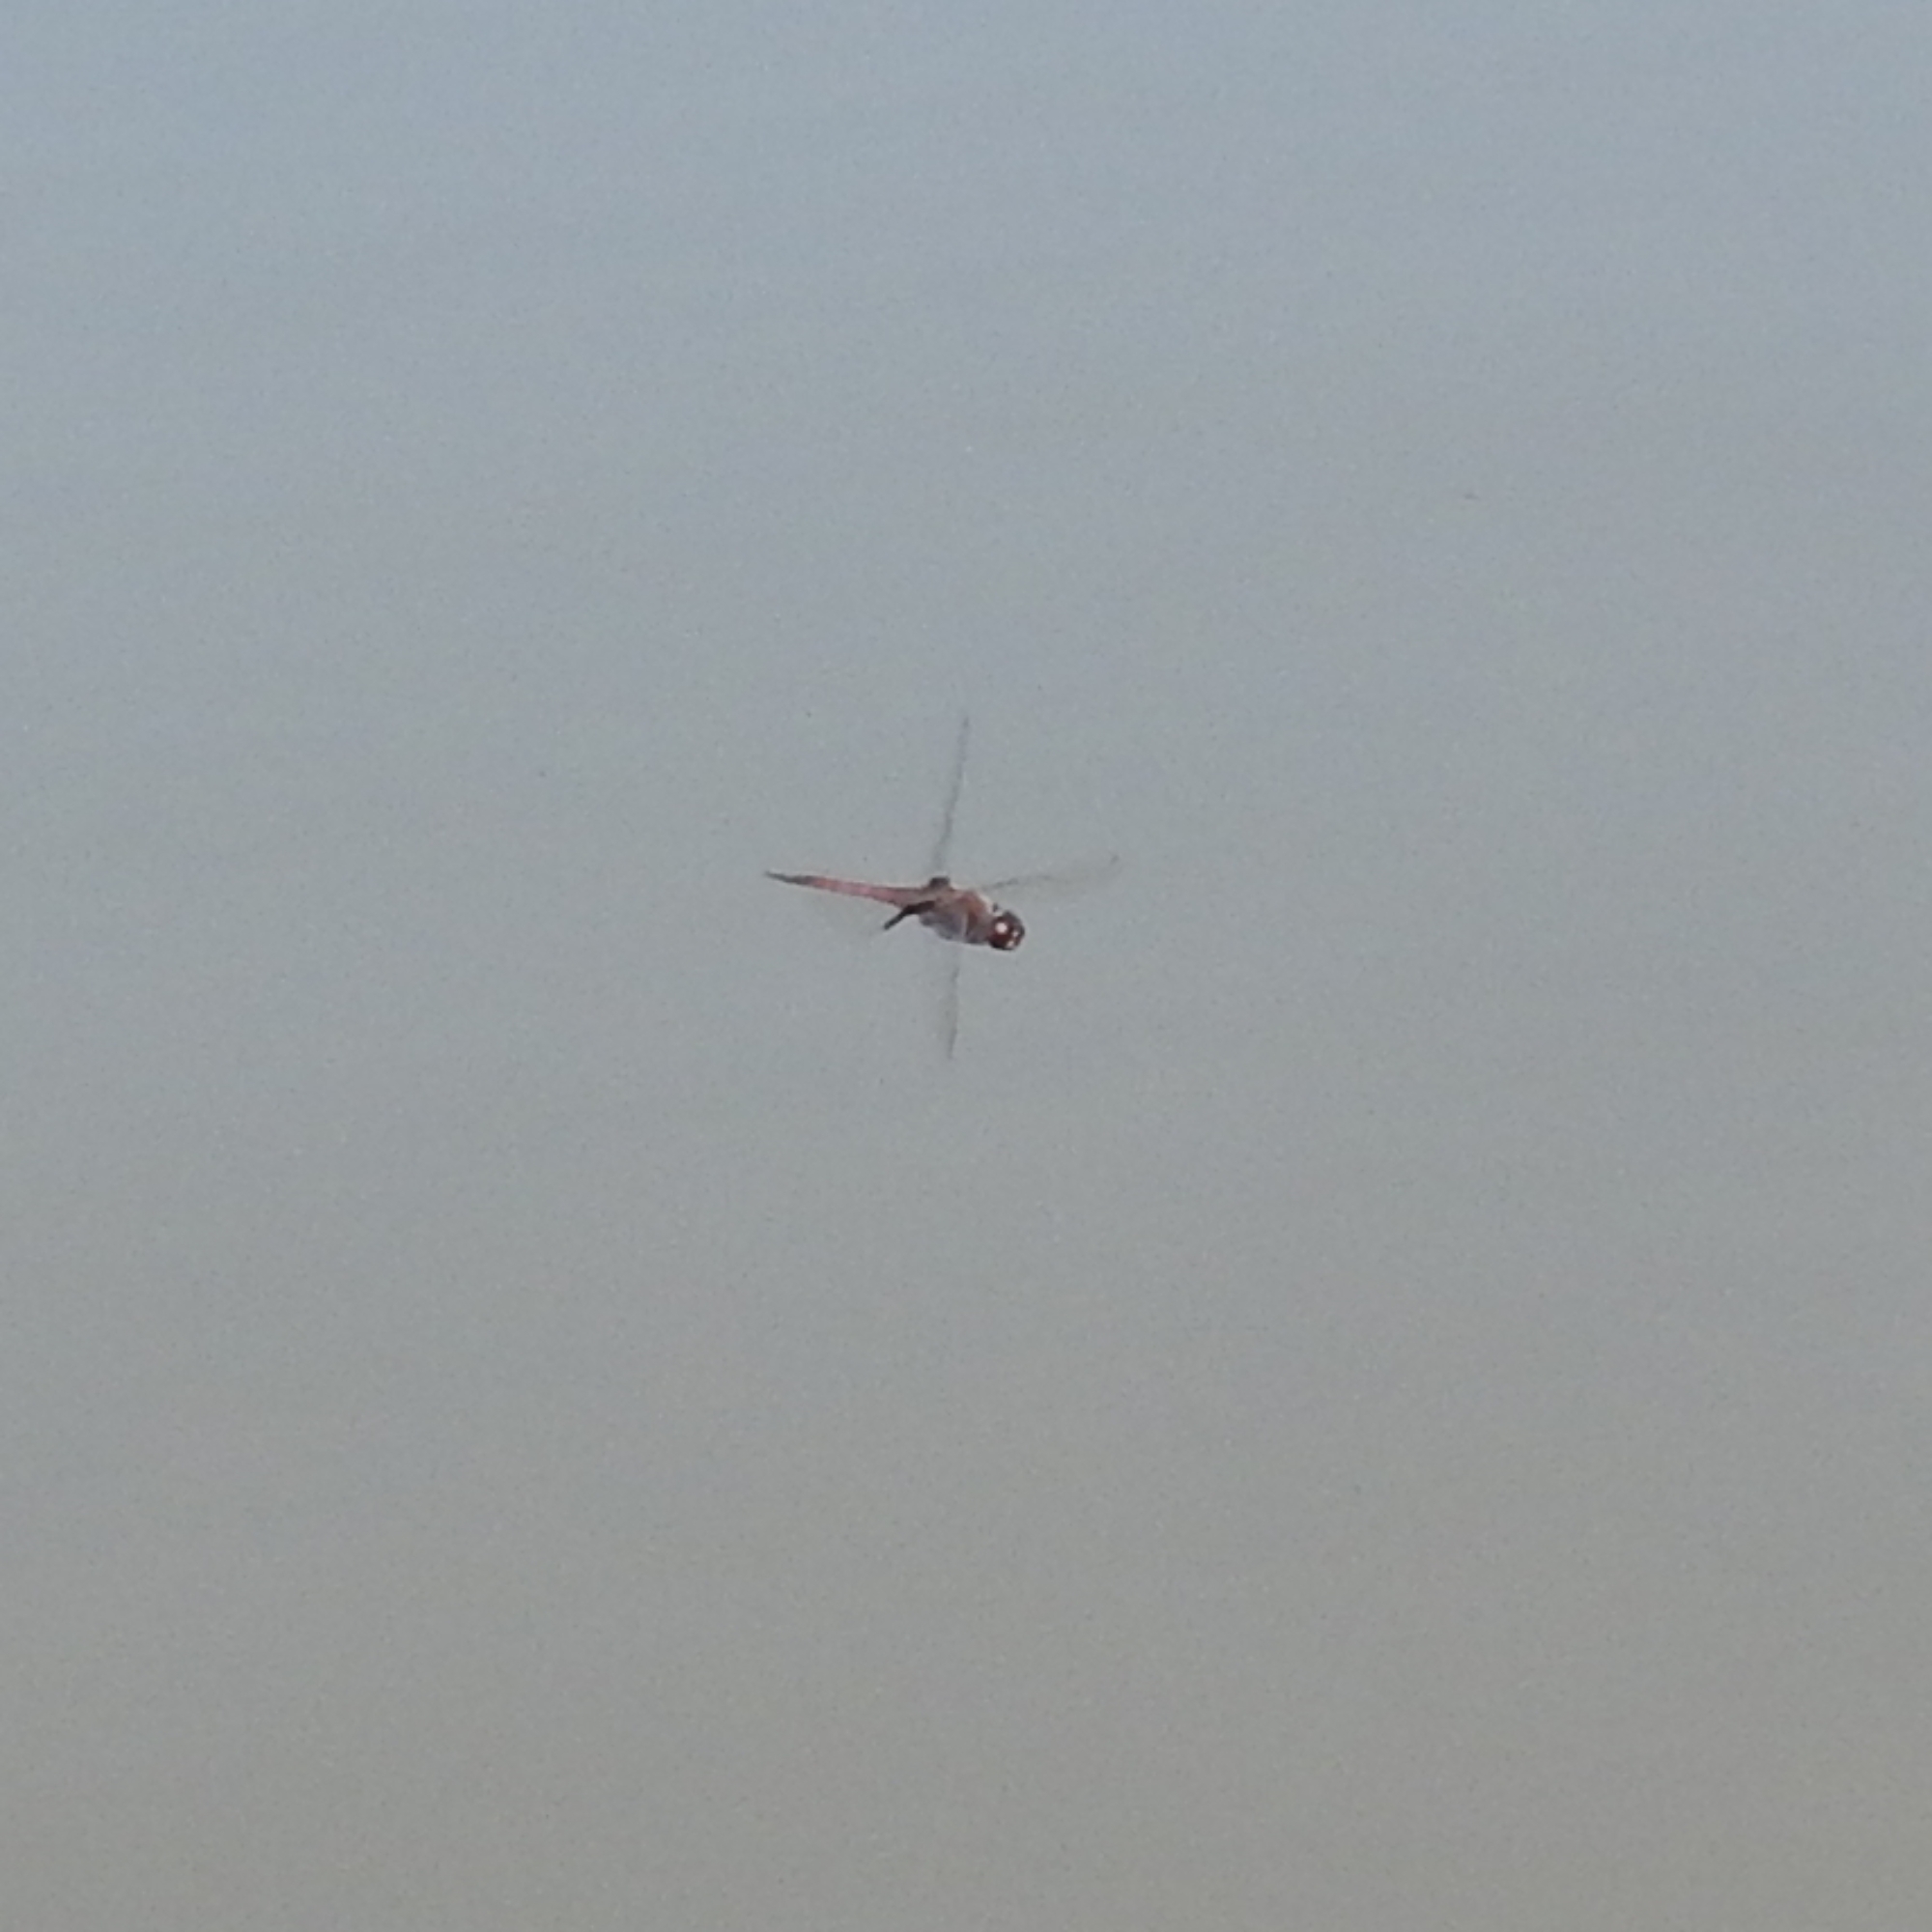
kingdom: Animalia
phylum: Arthropoda
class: Insecta
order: Odonata
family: Libellulidae
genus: Tramea
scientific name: Tramea limbata
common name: Ferruginous glider
